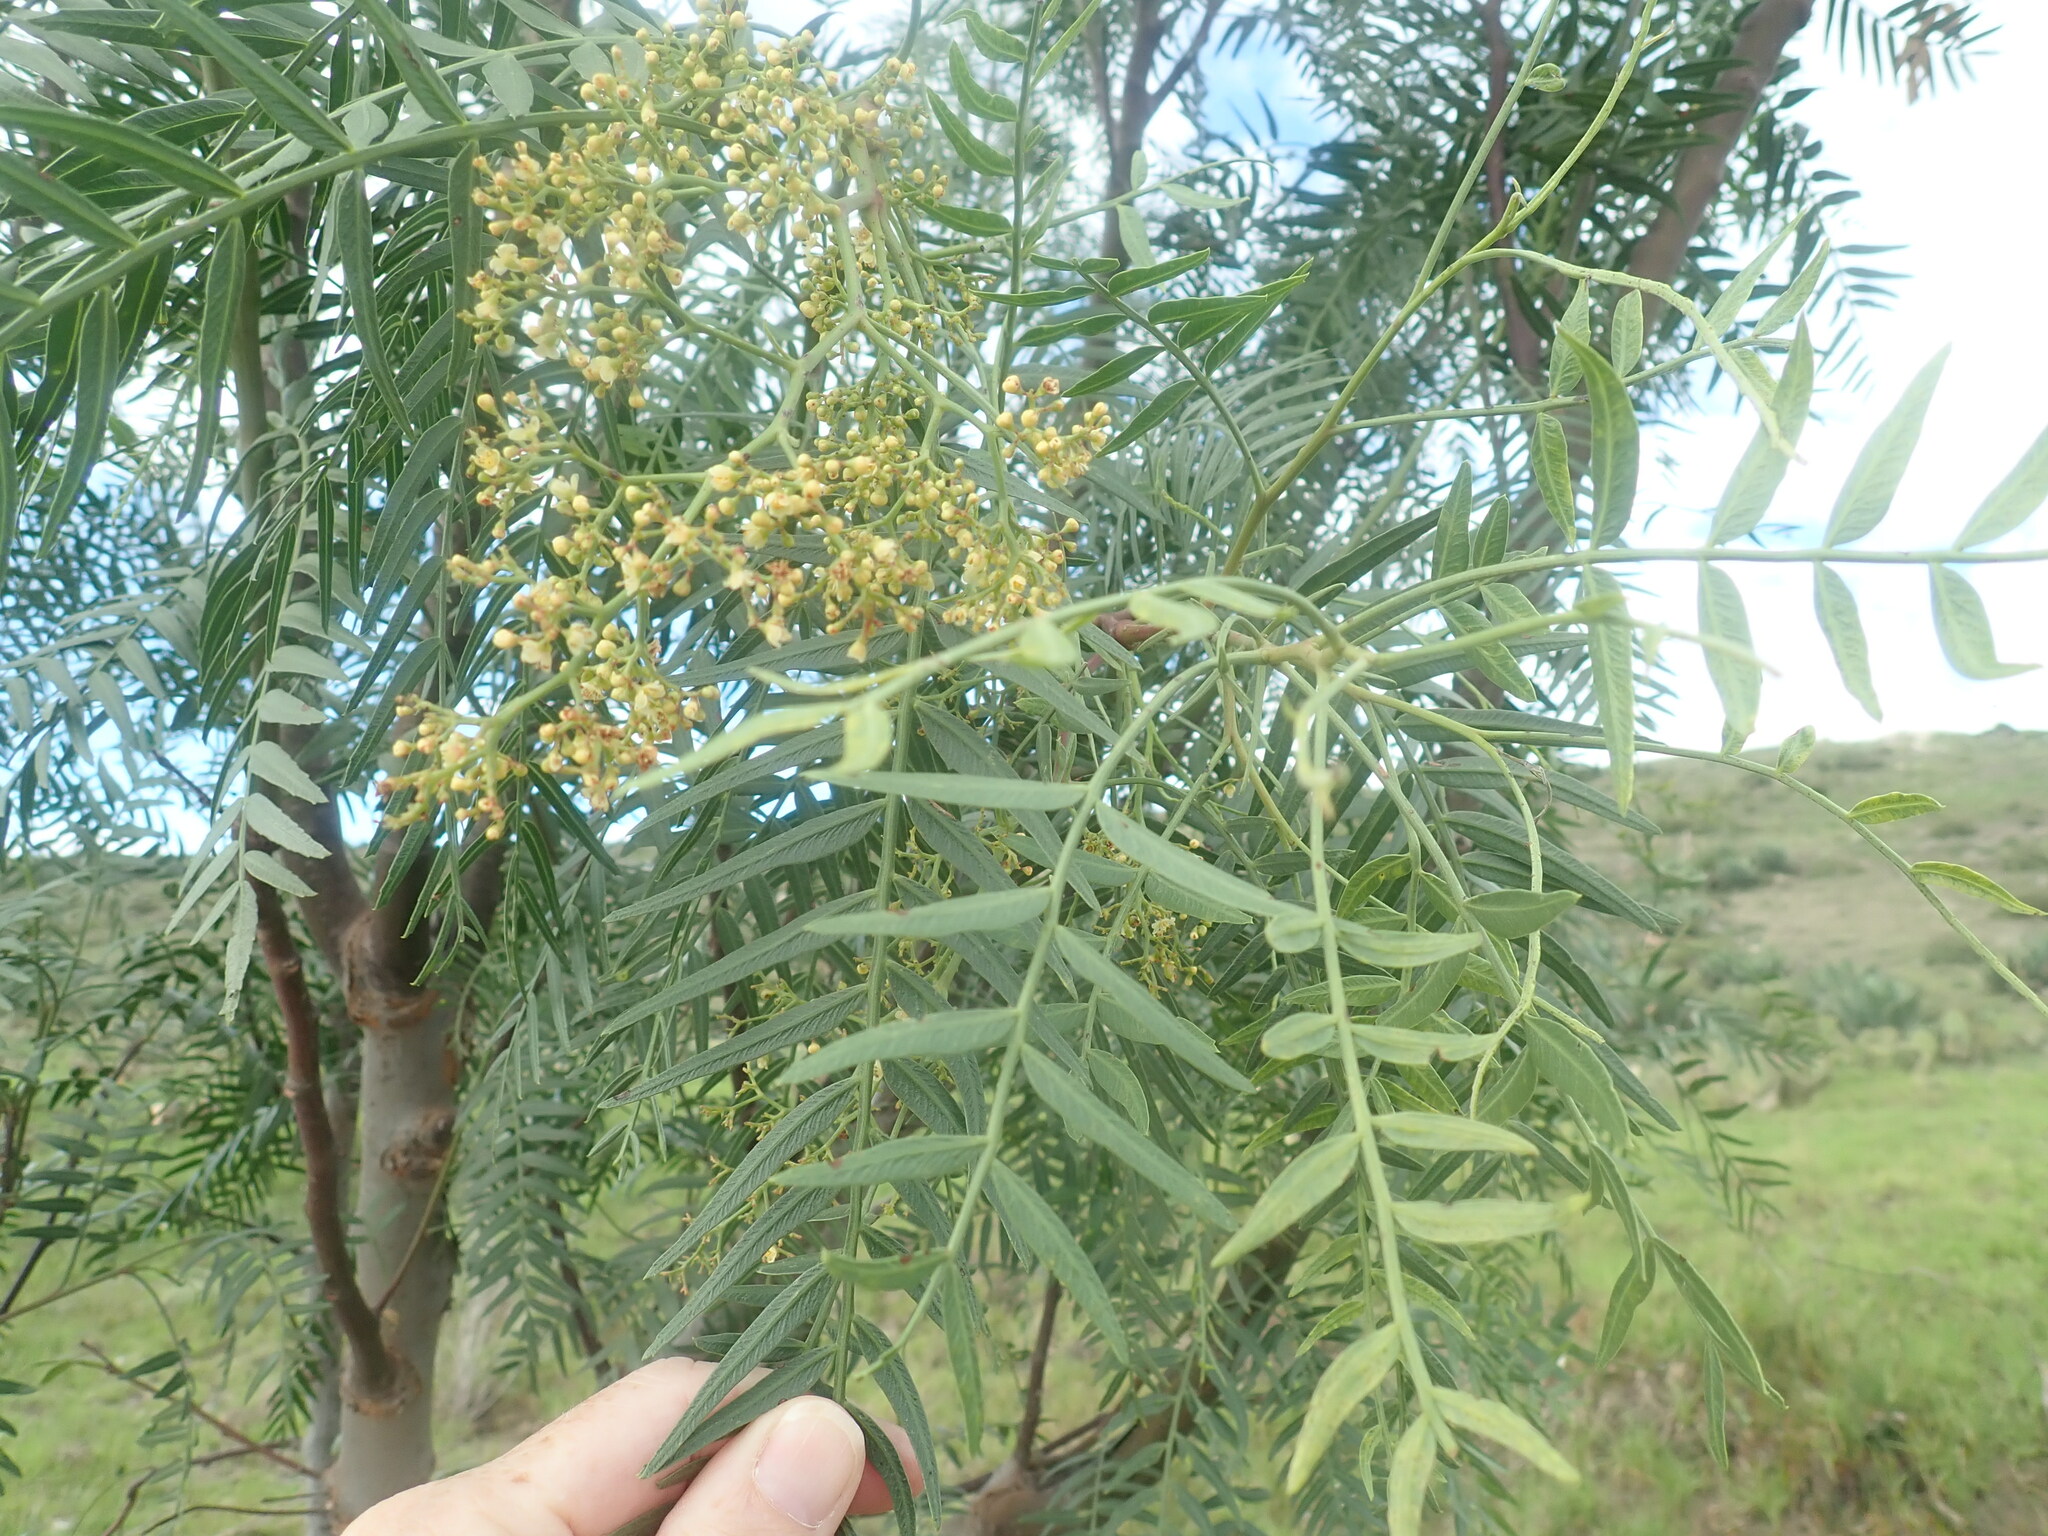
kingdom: Plantae
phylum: Tracheophyta
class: Magnoliopsida
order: Sapindales
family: Anacardiaceae
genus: Schinus
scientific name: Schinus molle
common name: Peruvian peppertree
